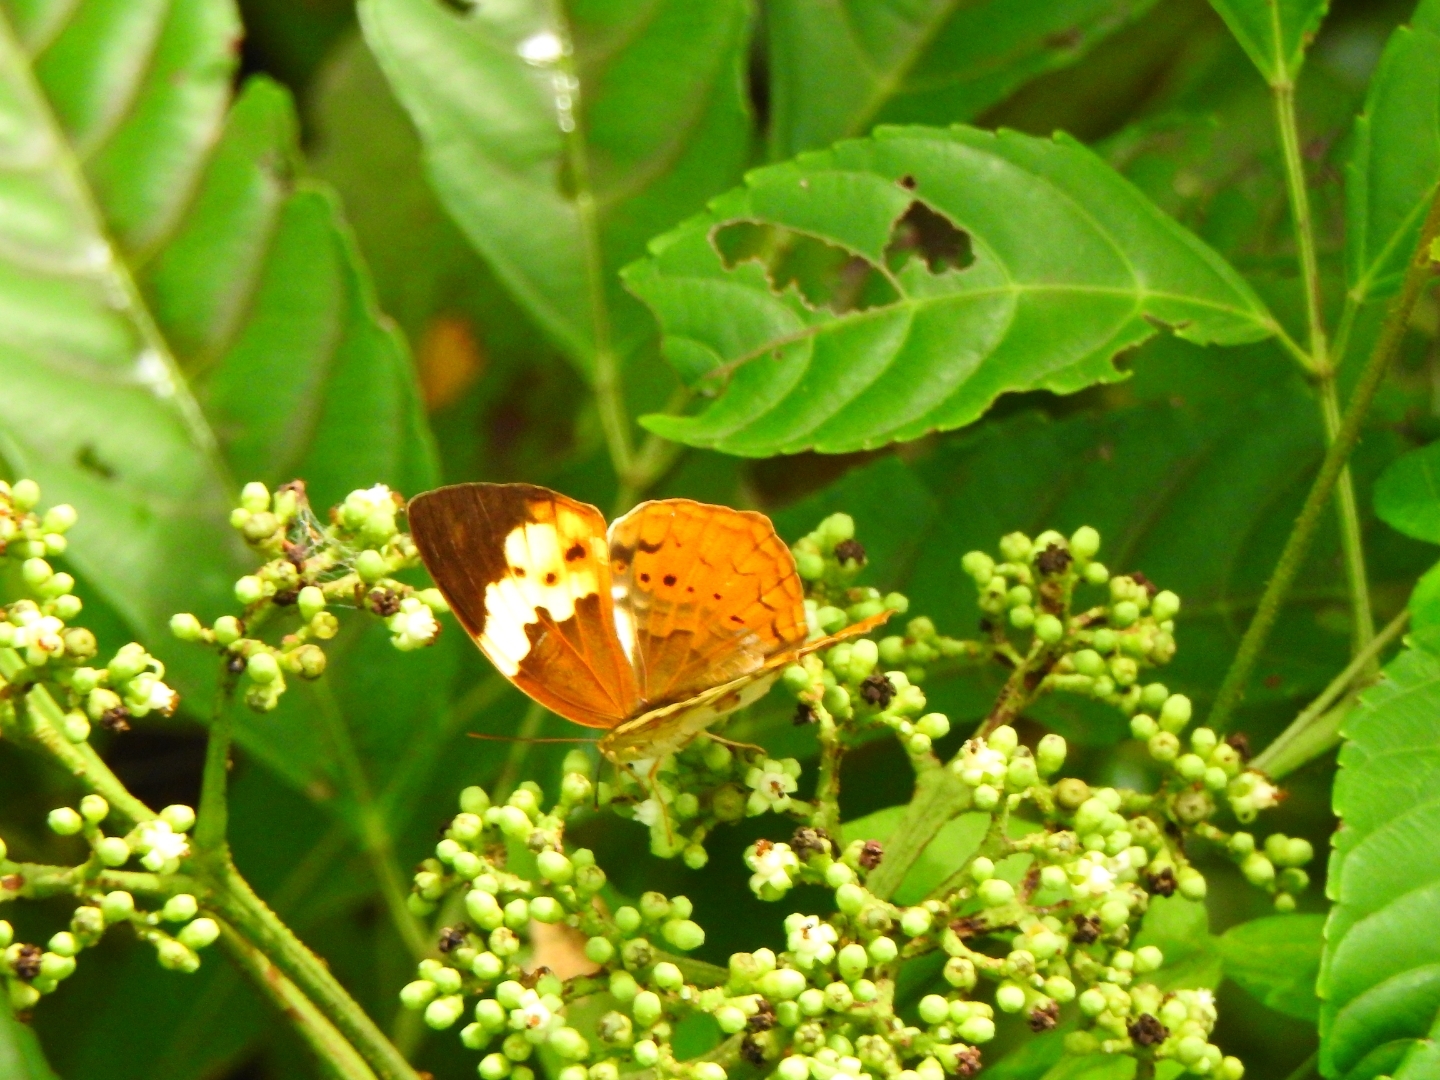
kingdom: Animalia
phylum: Arthropoda
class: Insecta
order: Lepidoptera
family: Nymphalidae
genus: Cupha
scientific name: Cupha erymanthis
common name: Rustic
